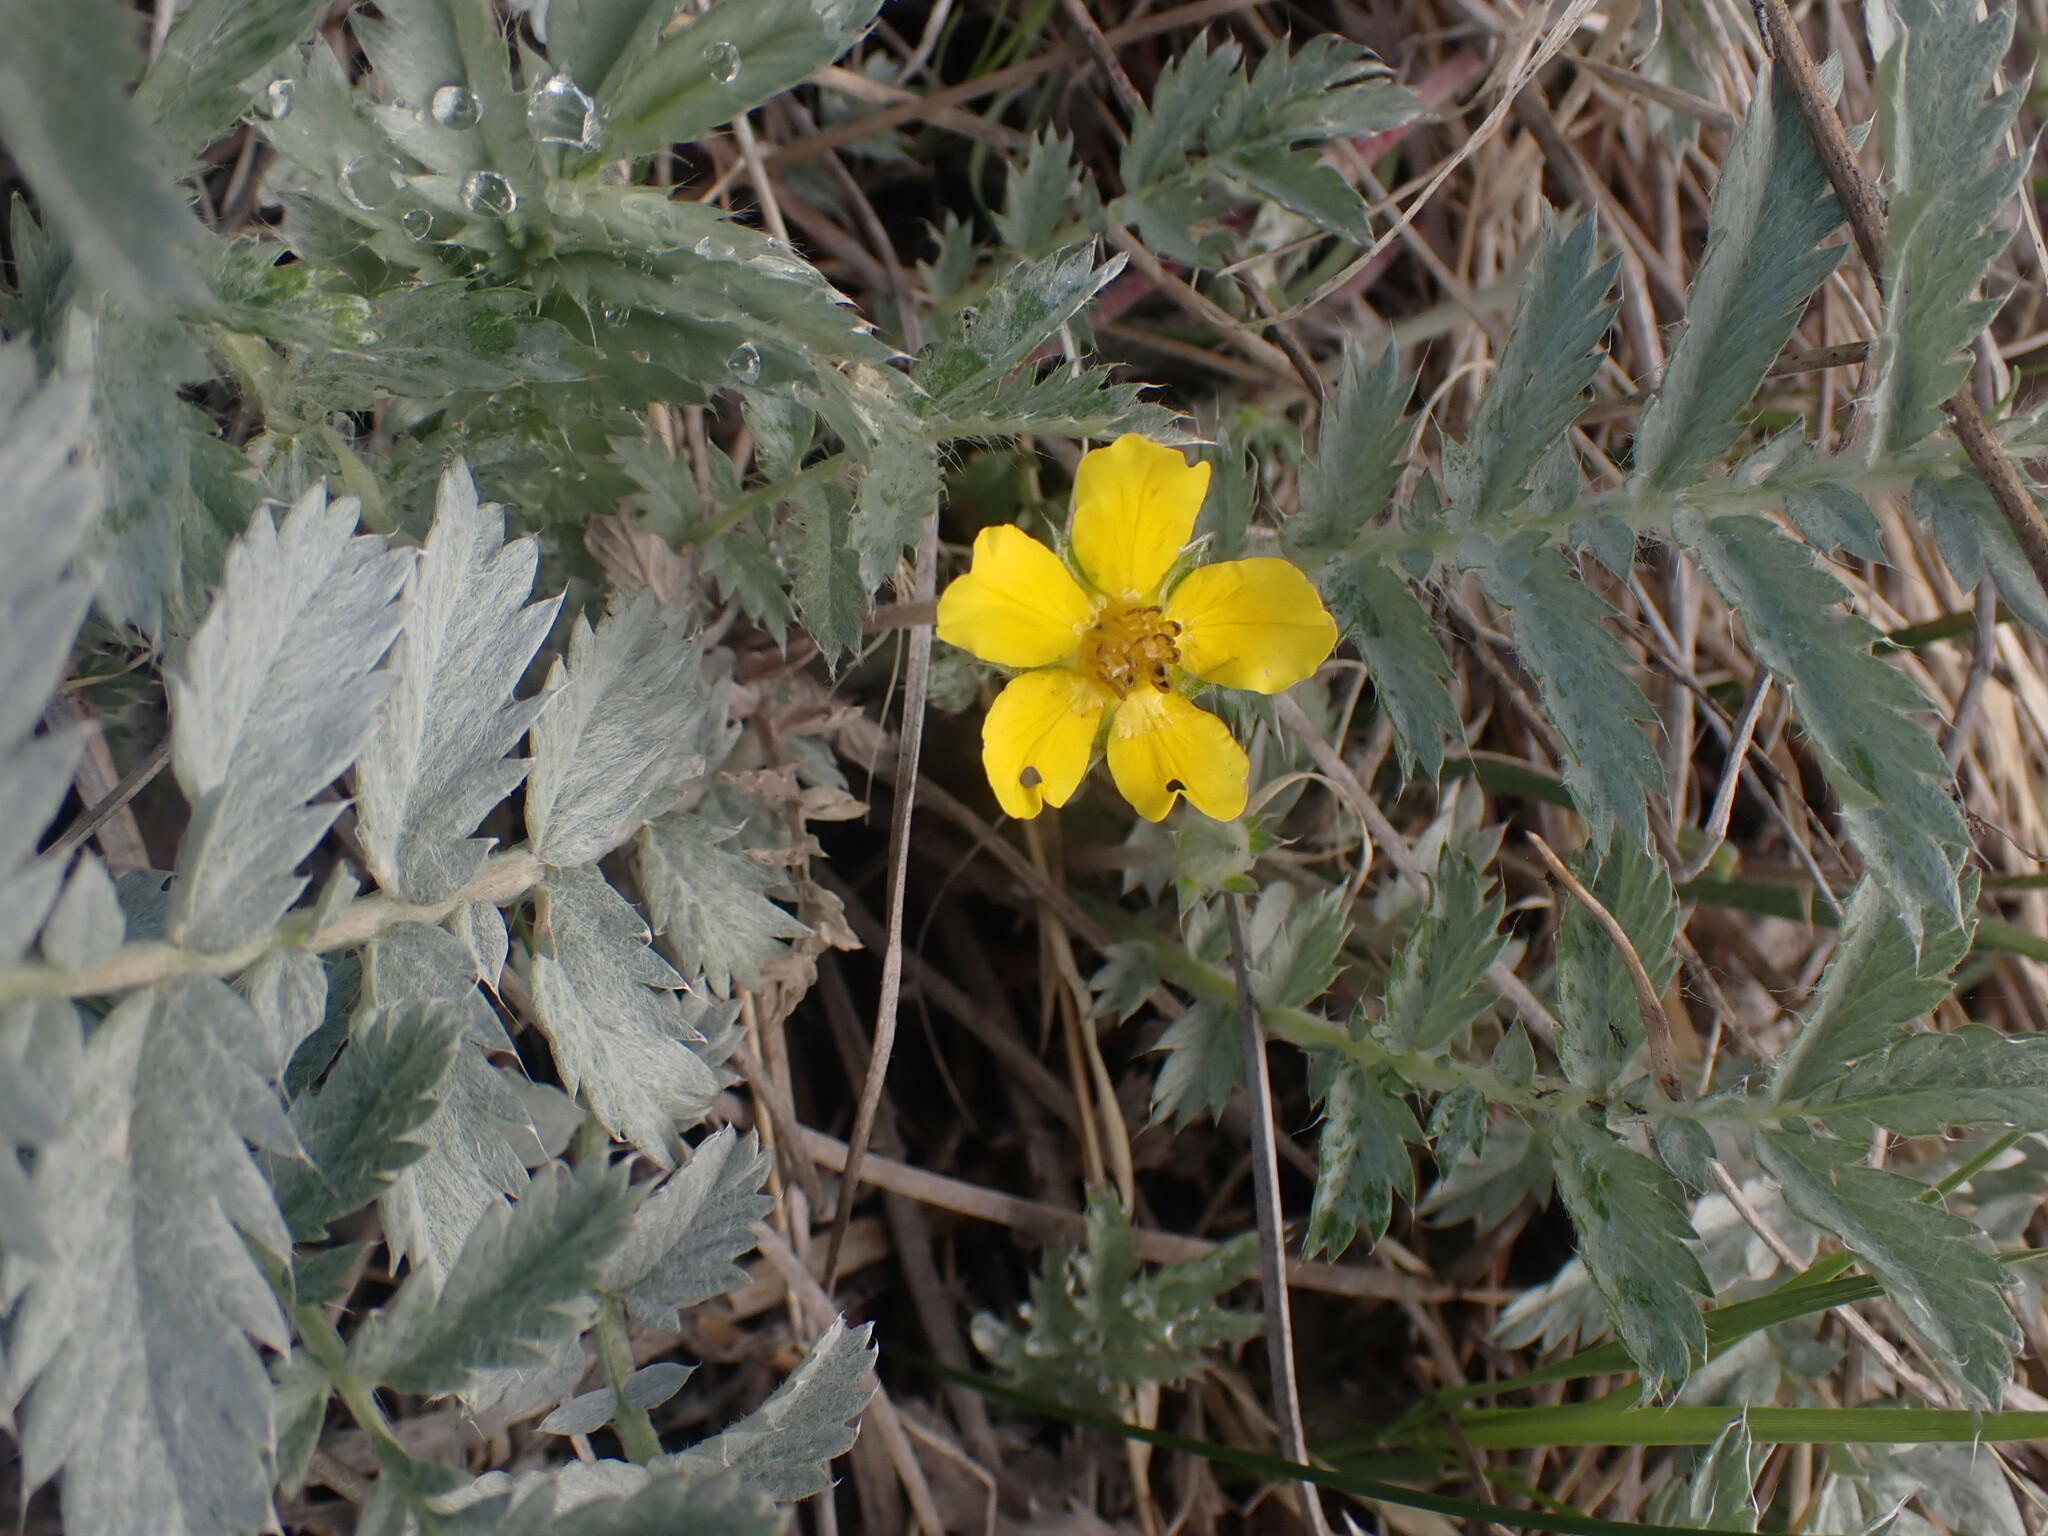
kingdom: Plantae
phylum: Tracheophyta
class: Magnoliopsida
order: Rosales
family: Rosaceae
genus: Argentina
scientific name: Argentina anserina
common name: Common silverweed
